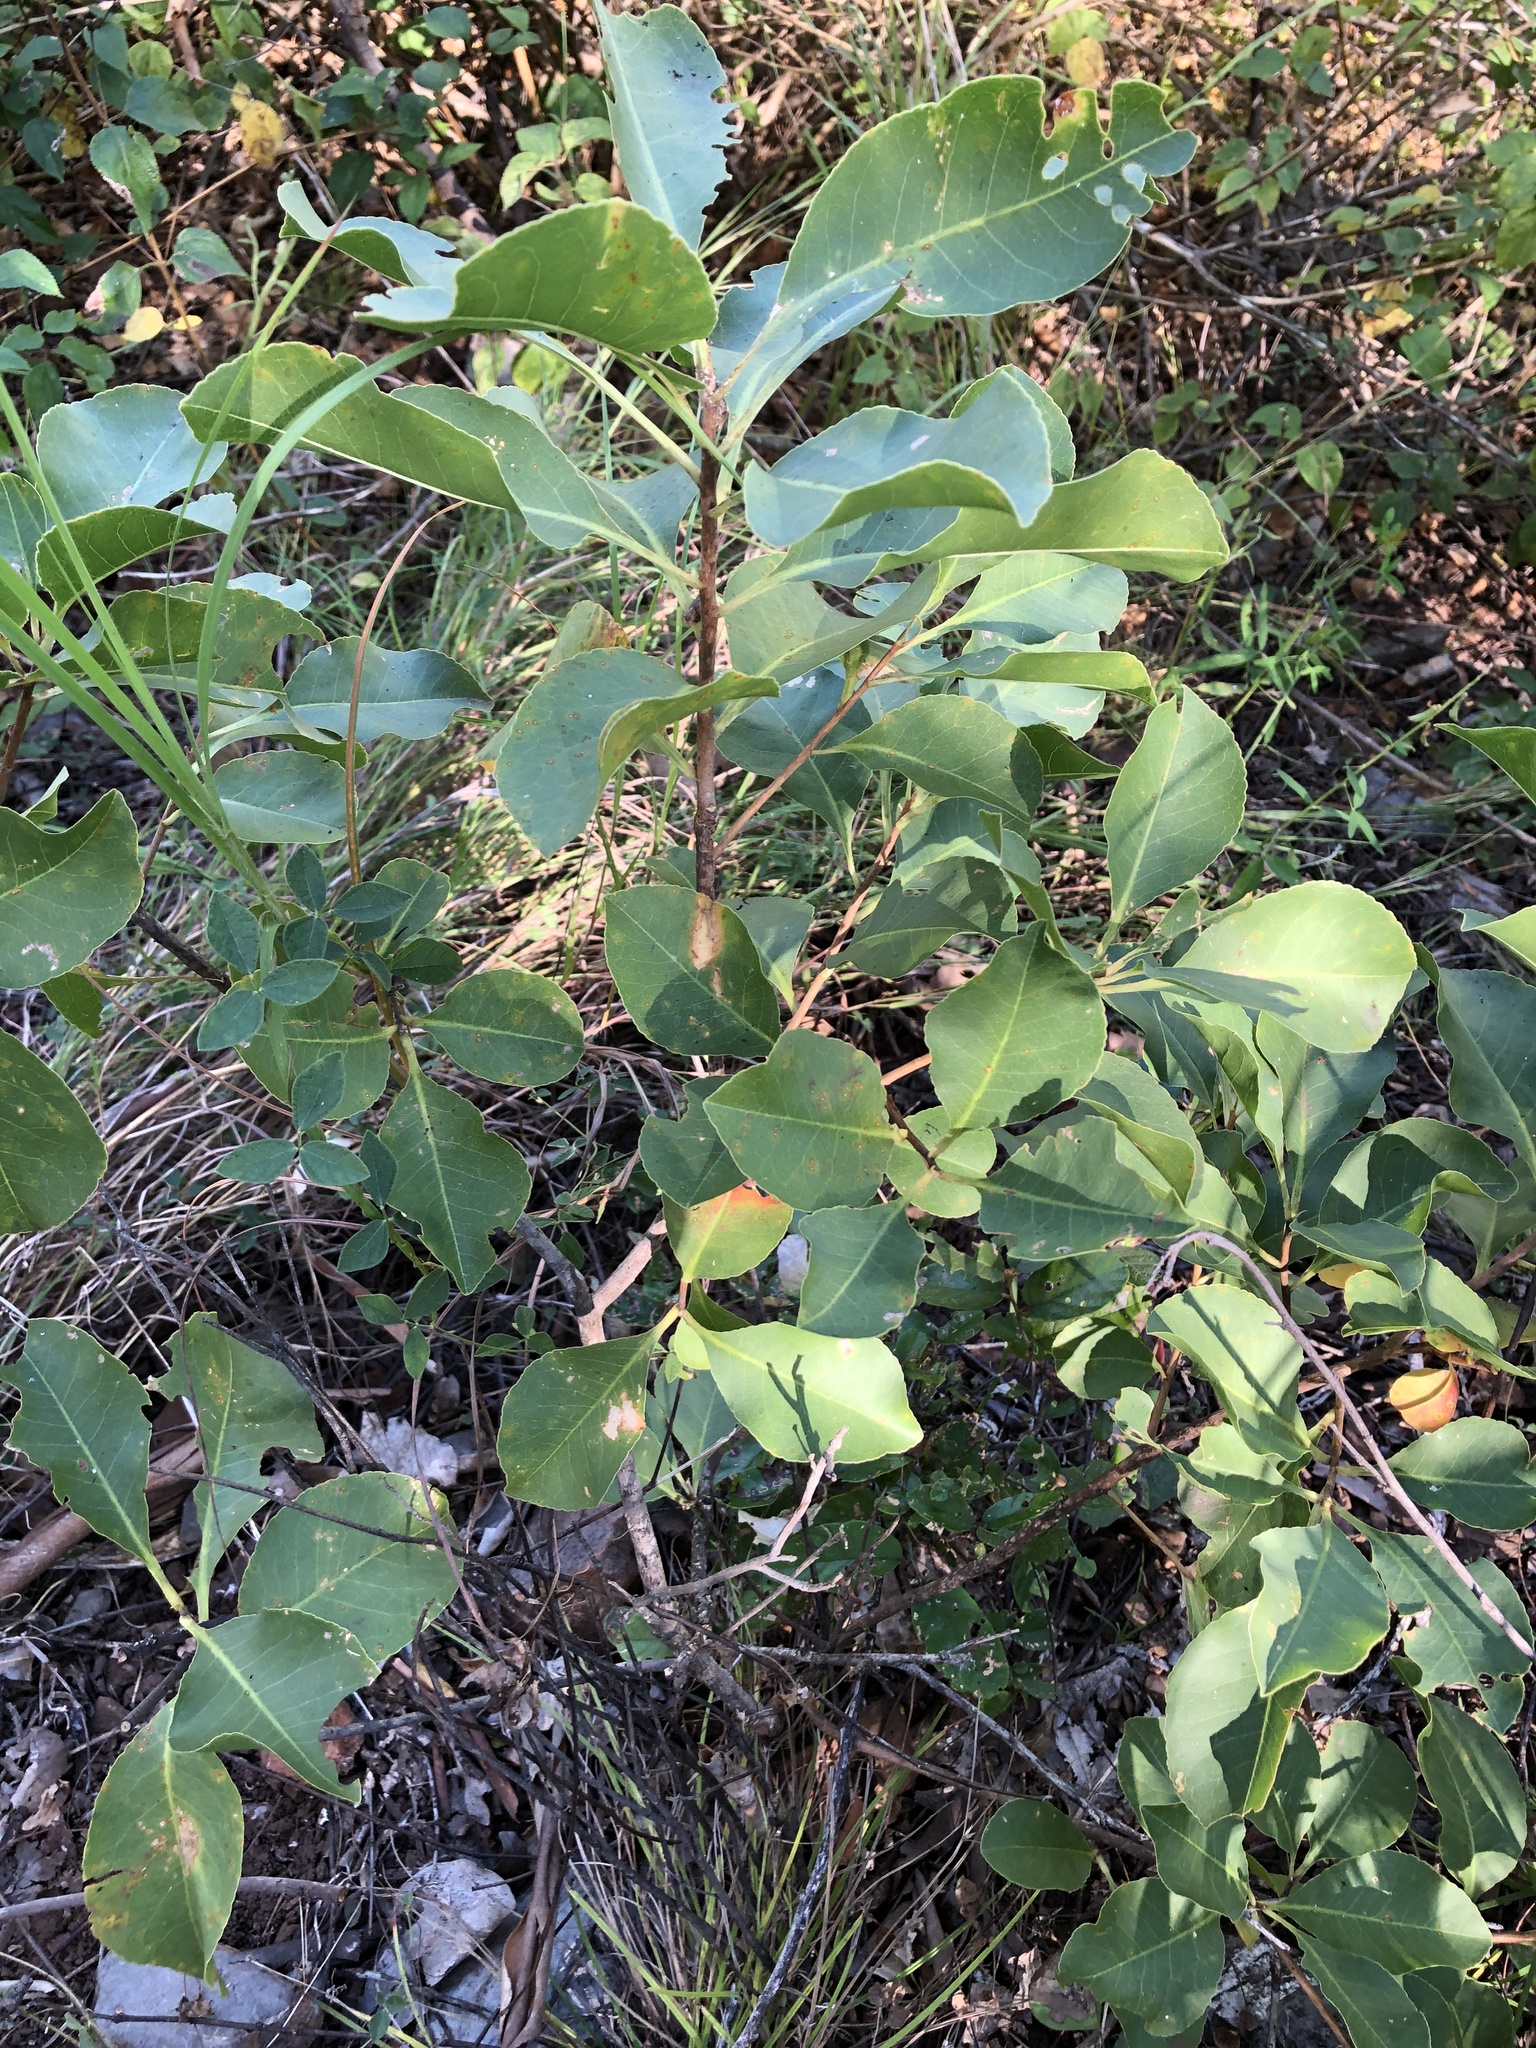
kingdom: Plantae
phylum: Tracheophyta
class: Magnoliopsida
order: Ericales
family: Lecythidaceae
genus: Planchonia
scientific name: Planchonia careya
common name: Cockatoo-apple
